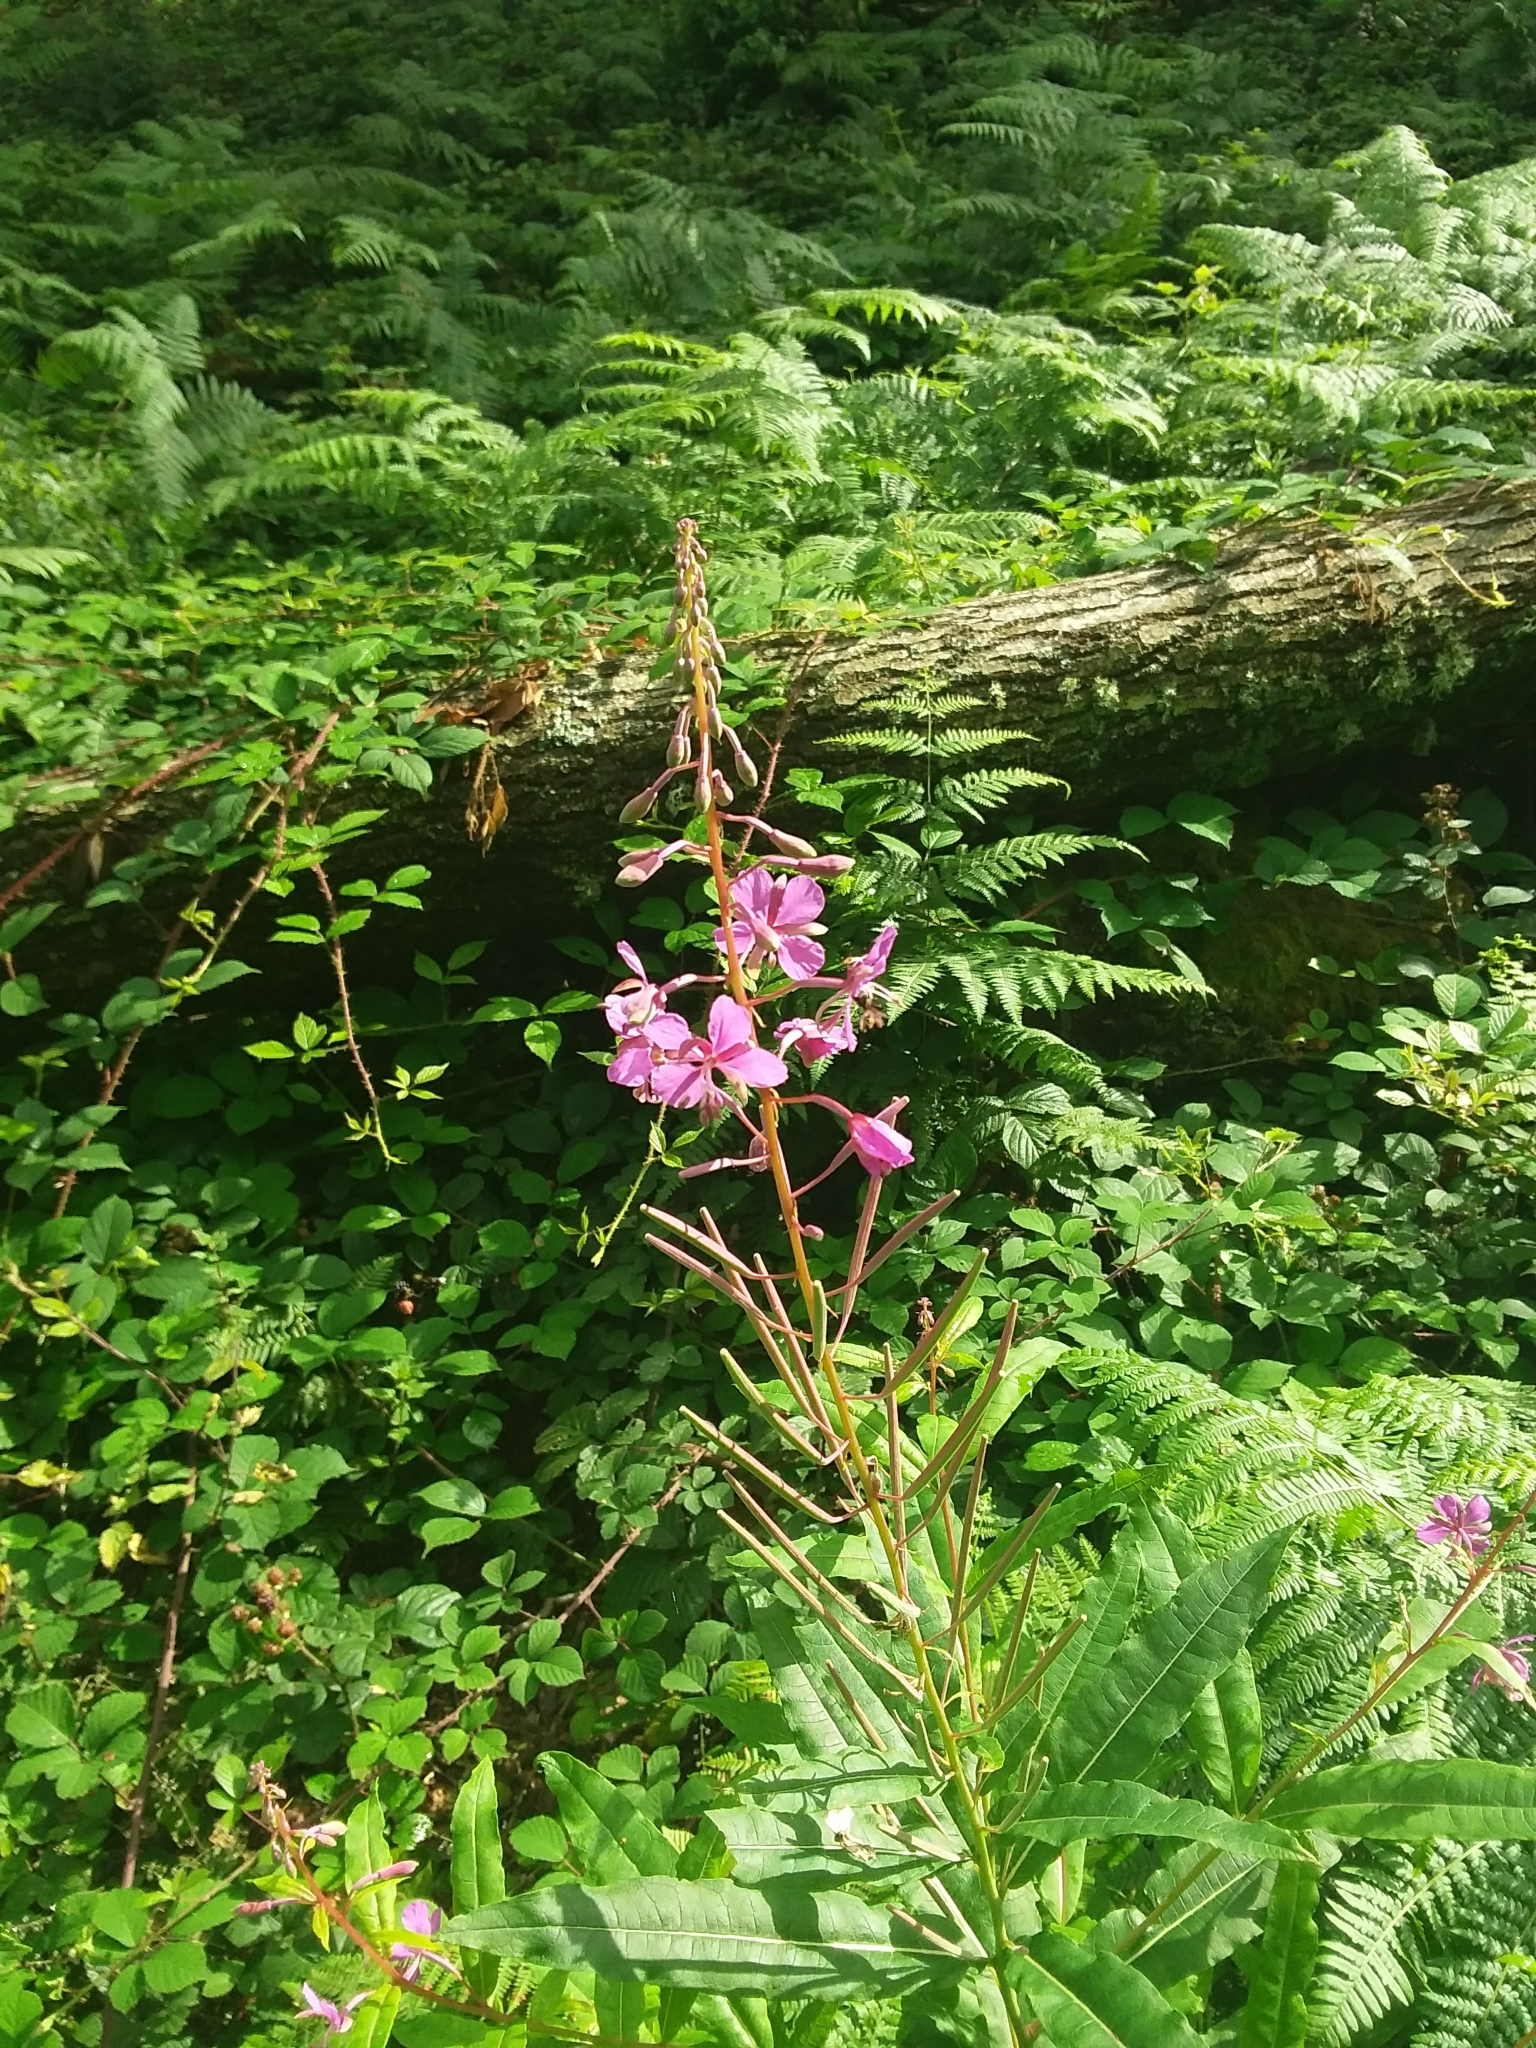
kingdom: Plantae
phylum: Tracheophyta
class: Magnoliopsida
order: Myrtales
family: Onagraceae
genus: Chamaenerion
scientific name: Chamaenerion angustifolium
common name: Fireweed
